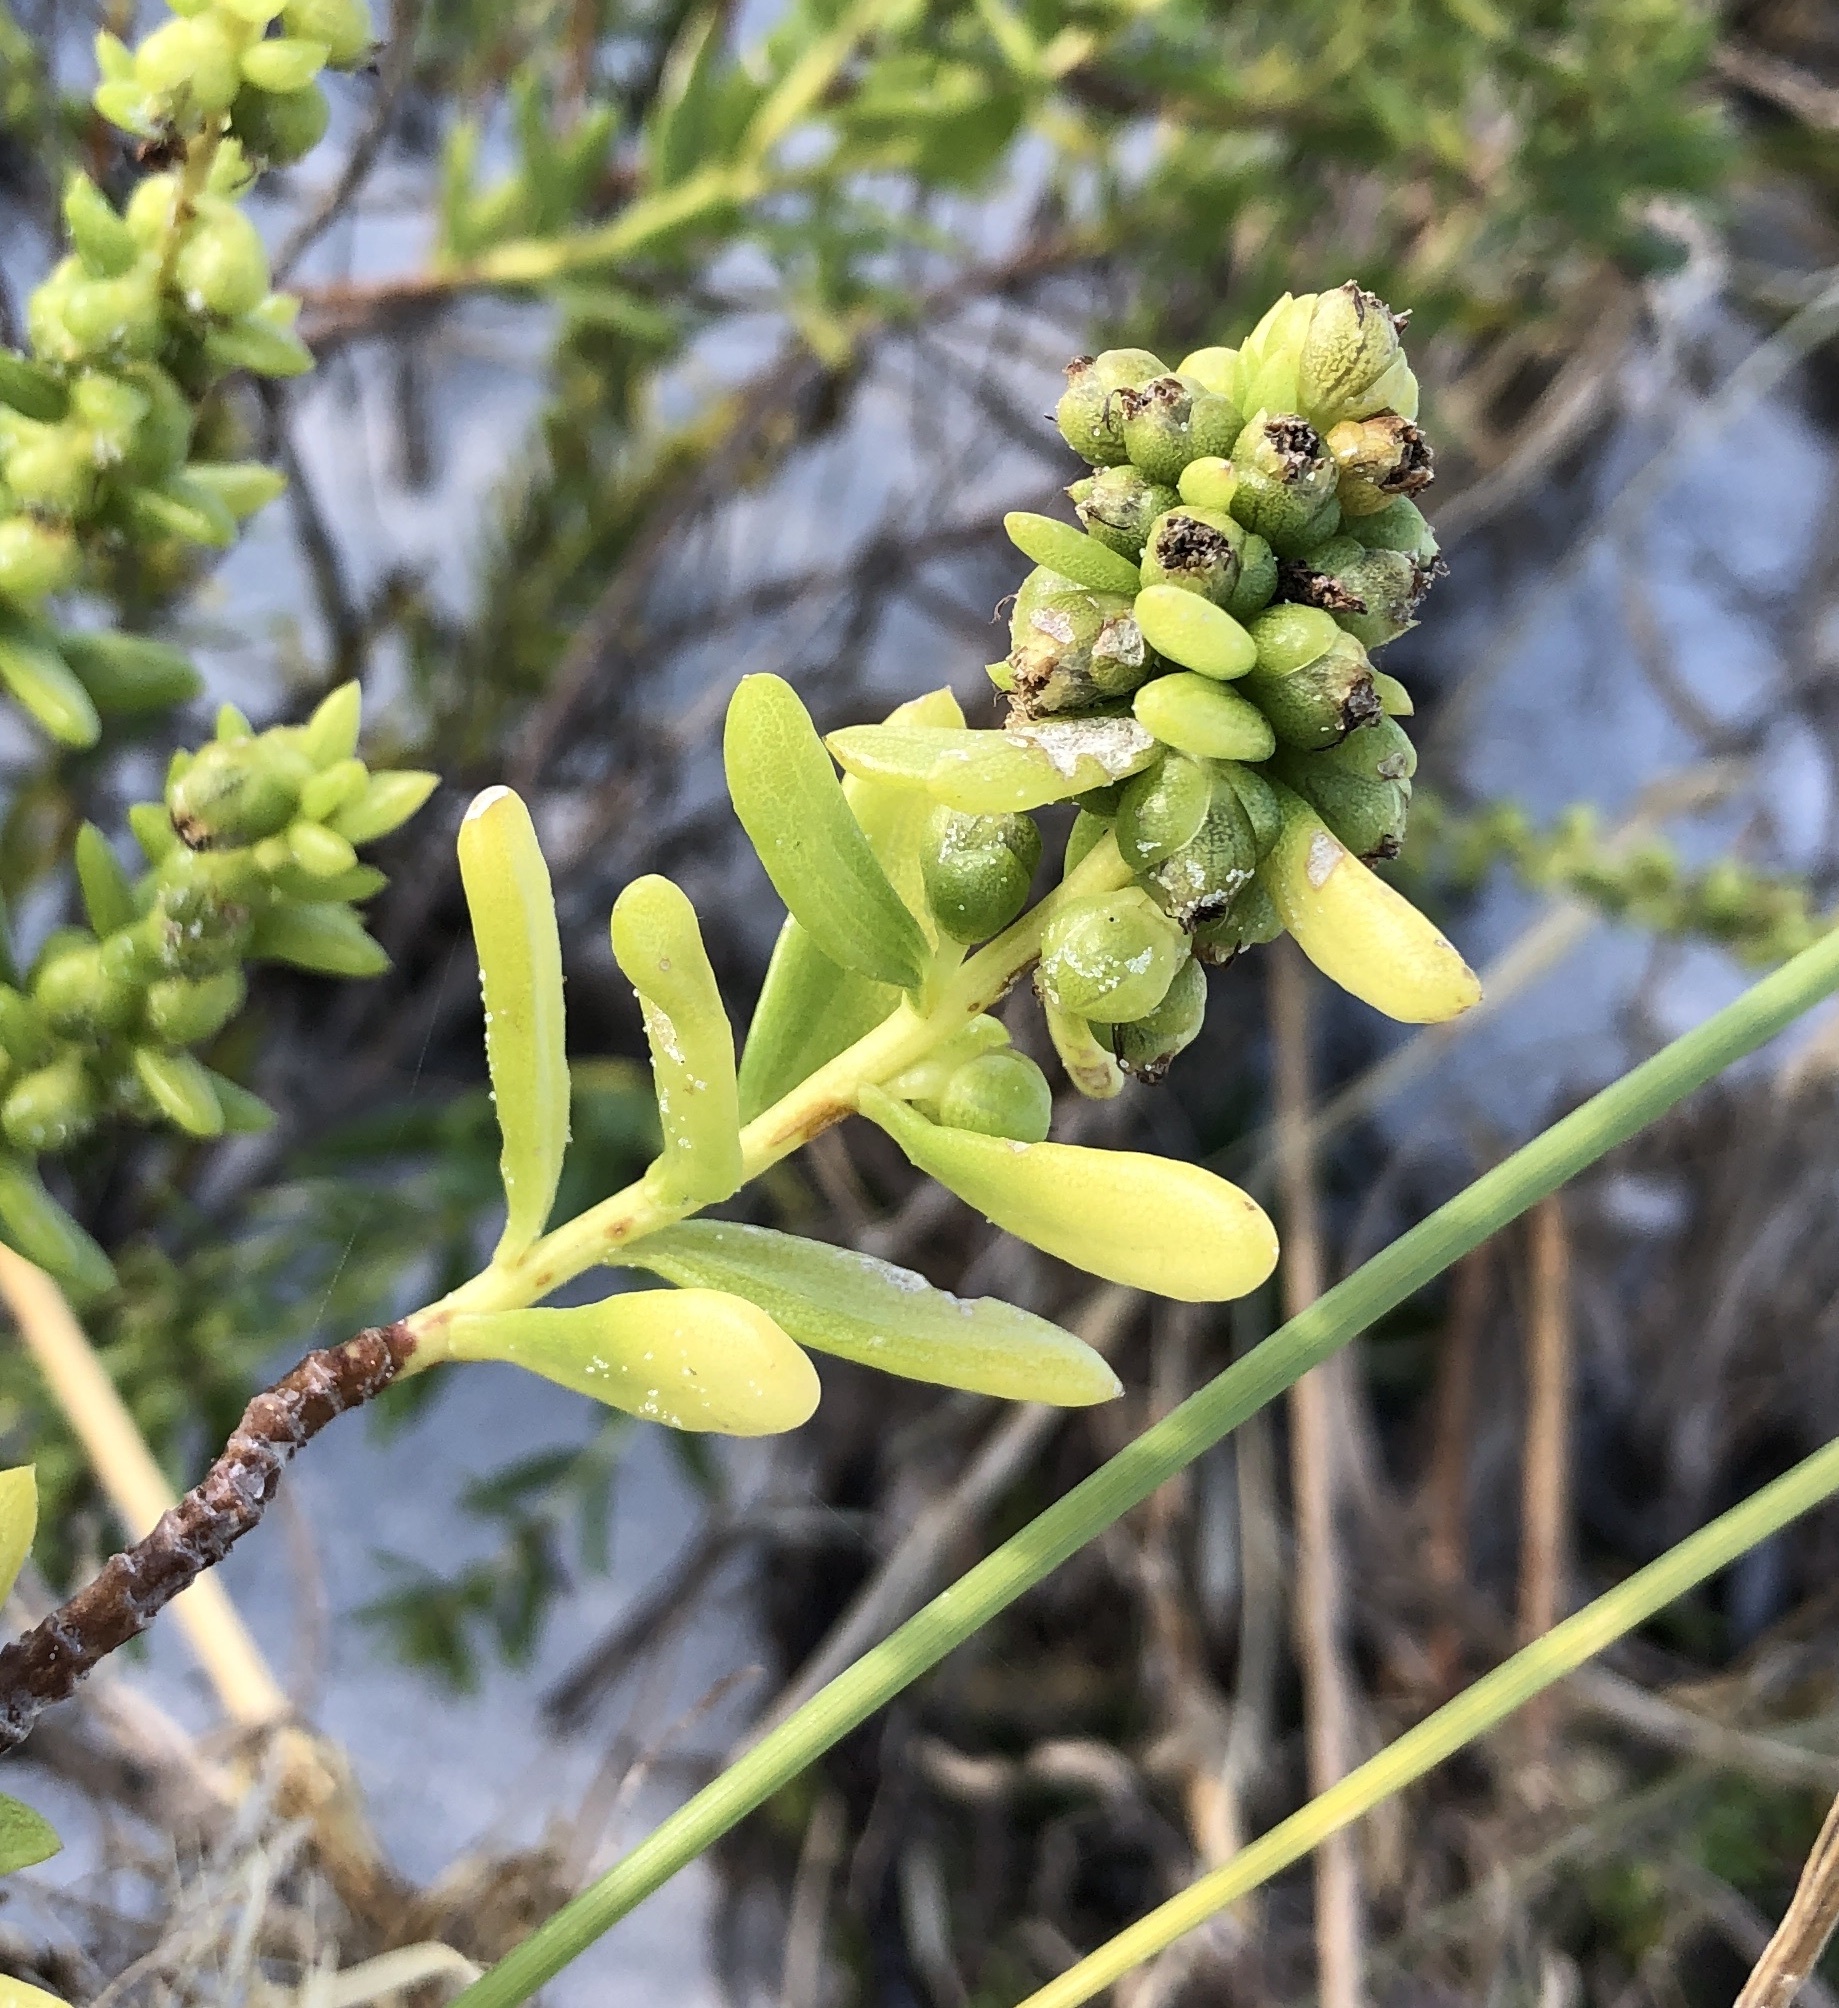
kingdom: Plantae
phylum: Tracheophyta
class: Magnoliopsida
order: Asterales
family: Asteraceae
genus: Iva
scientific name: Iva imbricata
